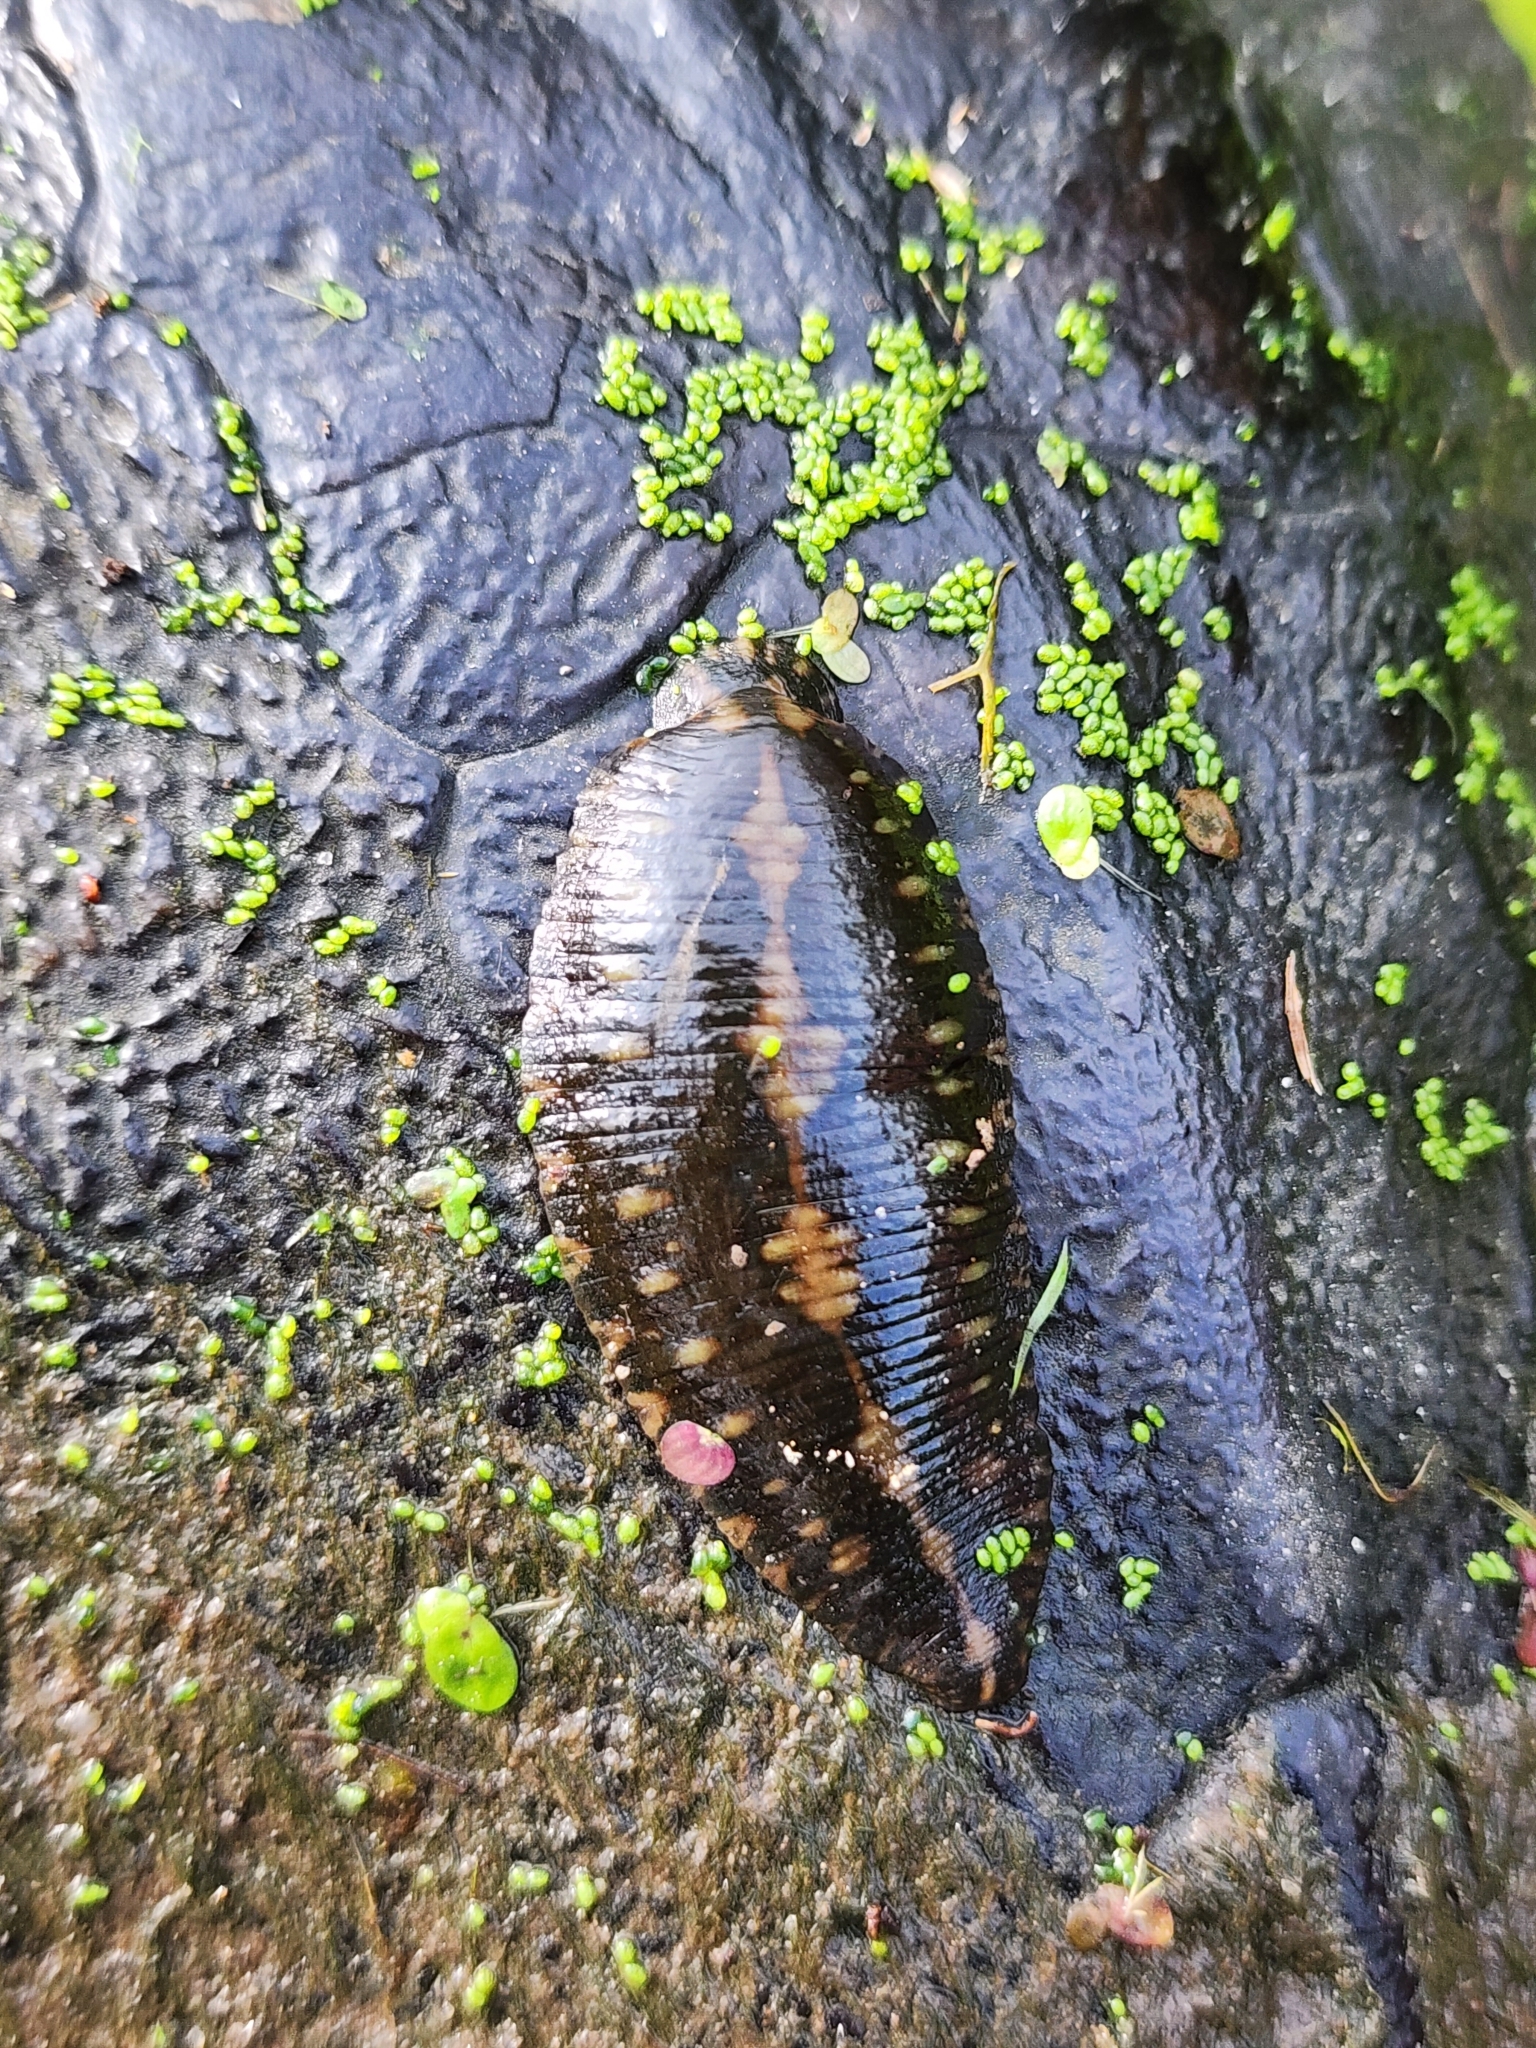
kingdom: Animalia
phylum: Annelida
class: Clitellata
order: Rhynchobdellida
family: Glossiphoniidae
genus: Placobdella
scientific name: Placobdella parasitica
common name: Smooth turtle leech
